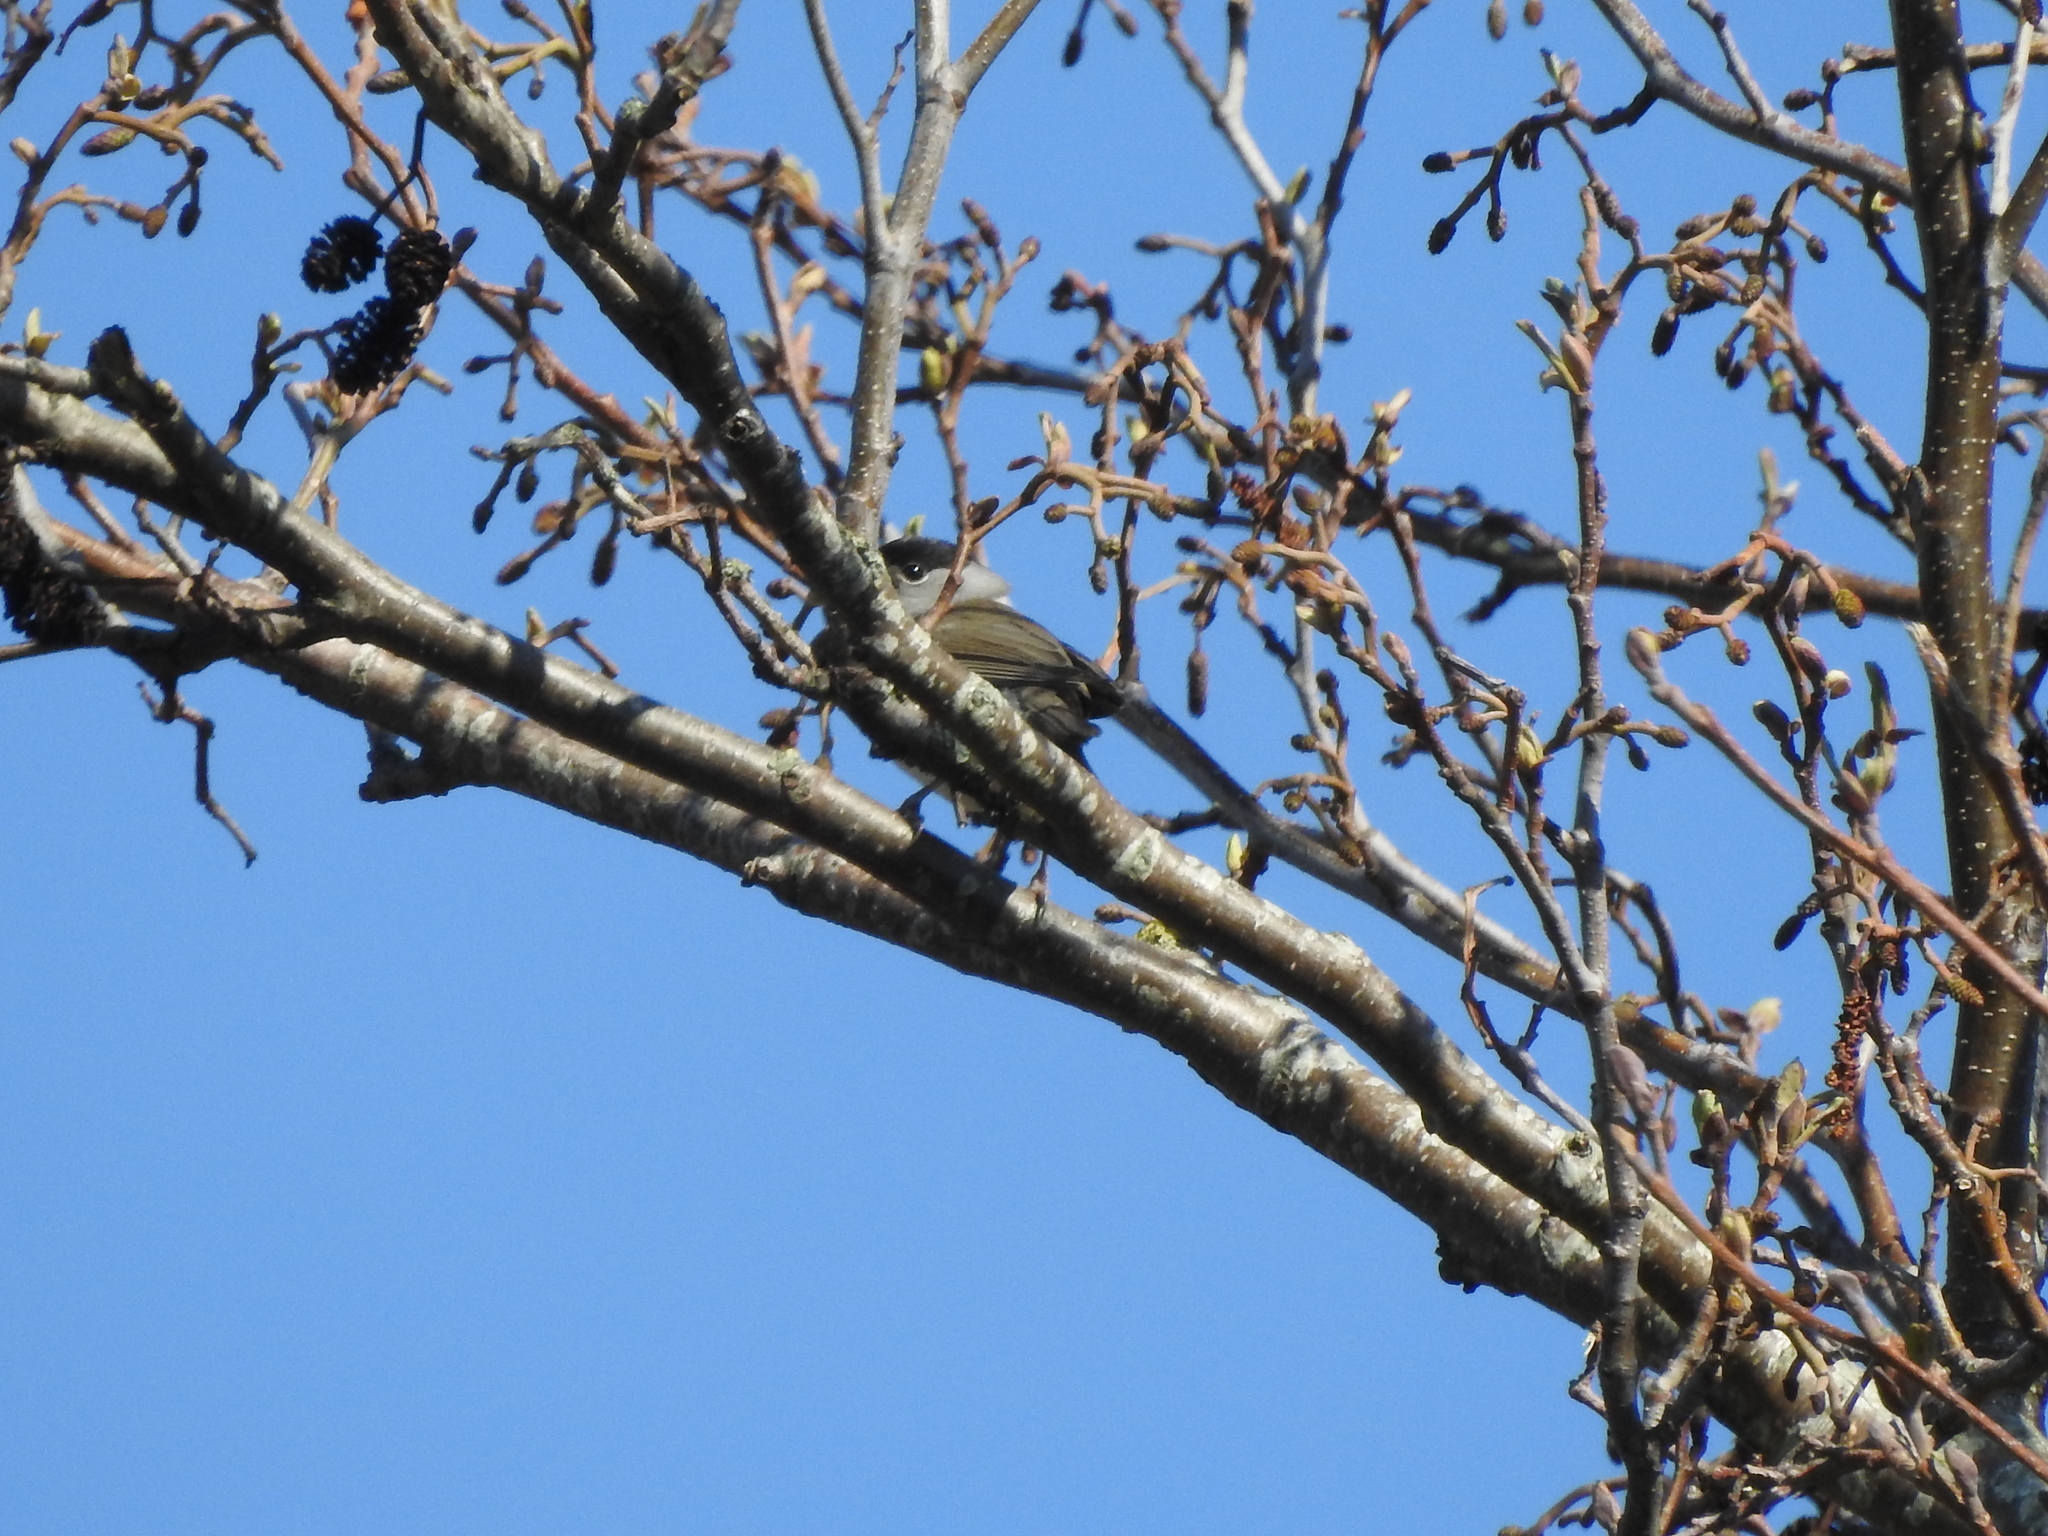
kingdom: Animalia
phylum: Chordata
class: Aves
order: Passeriformes
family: Sylviidae
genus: Sylvia
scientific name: Sylvia atricapilla
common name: Eurasian blackcap
